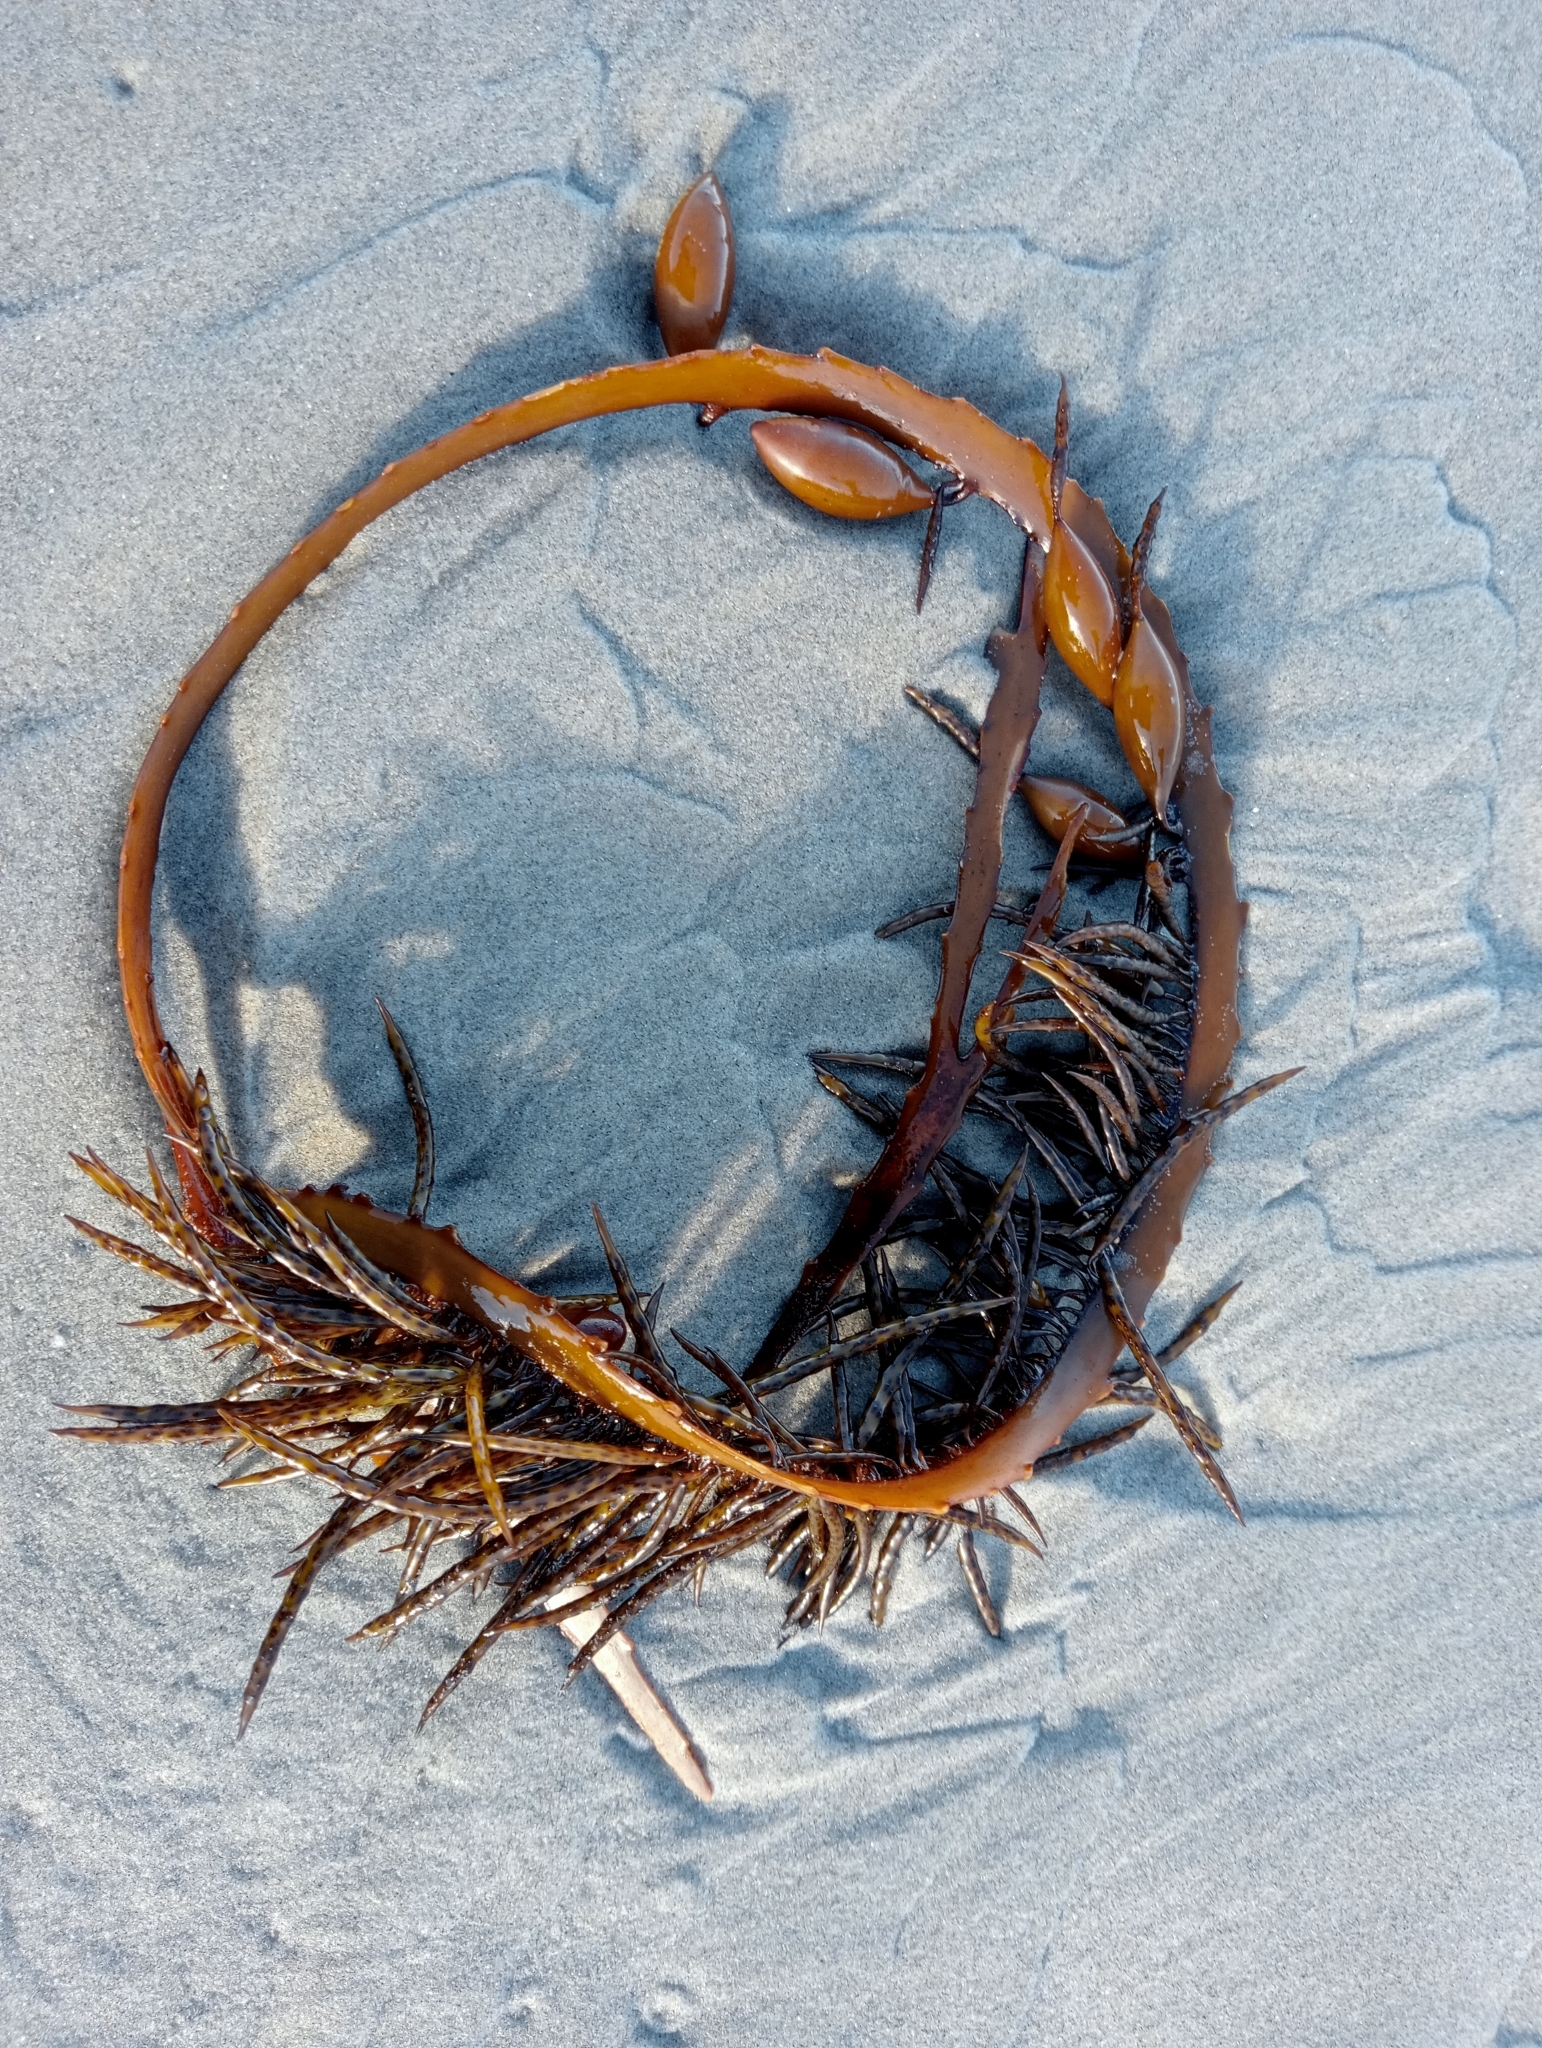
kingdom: Chromista
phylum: Ochrophyta
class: Phaeophyceae
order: Fucales
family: Seirococcaceae
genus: Marginariella
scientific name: Marginariella boryana
